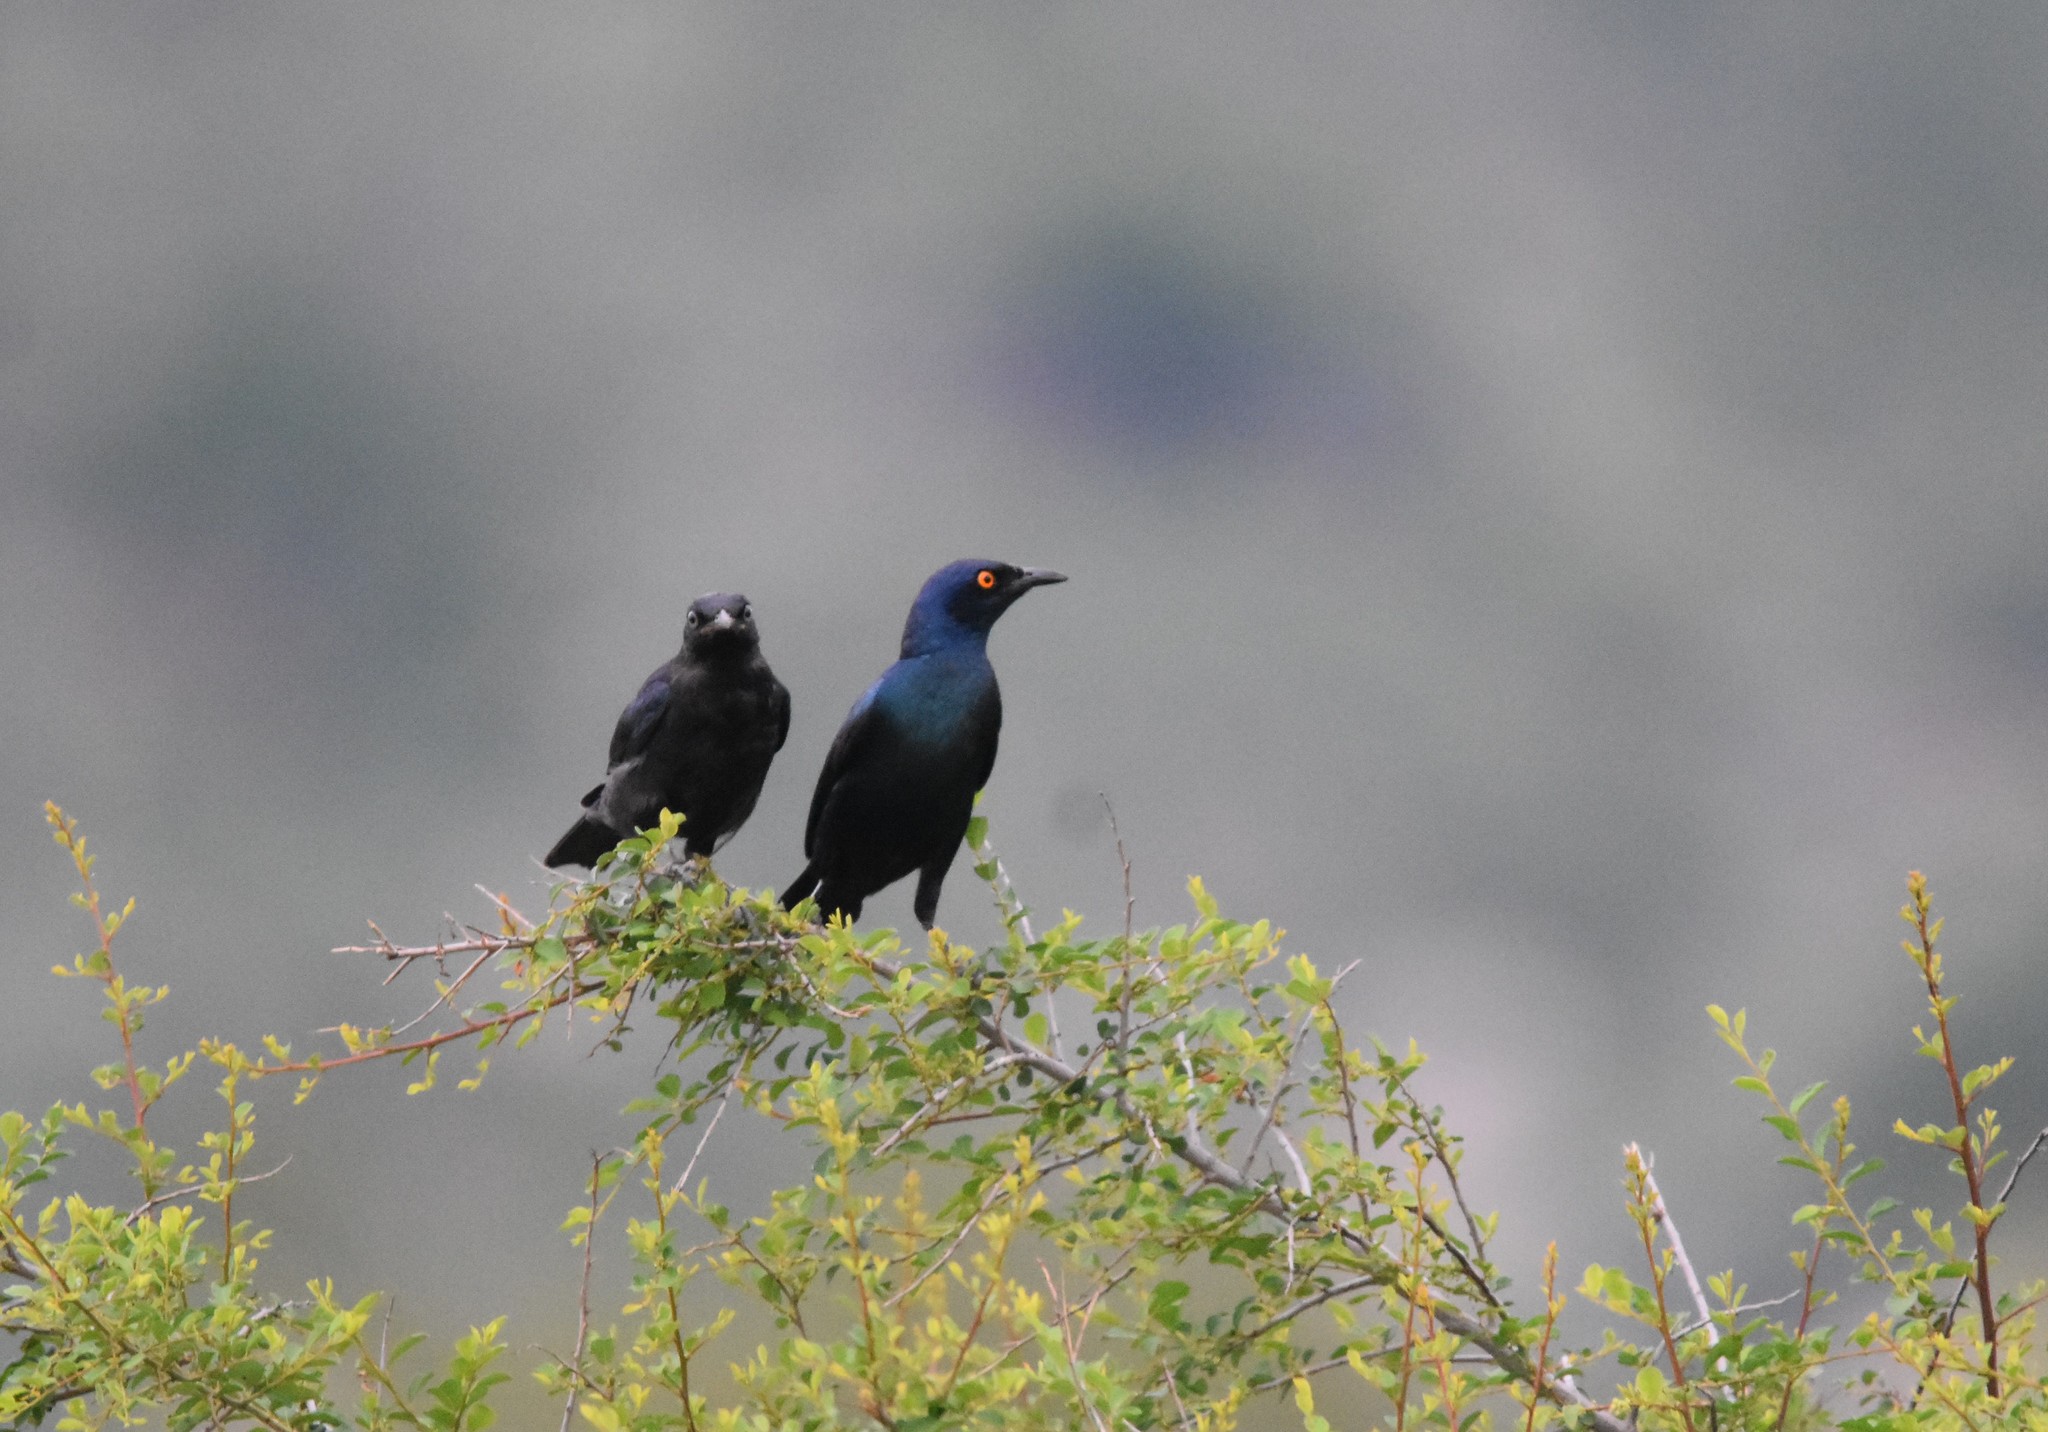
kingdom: Animalia
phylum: Chordata
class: Aves
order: Passeriformes
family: Sturnidae
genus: Lamprotornis
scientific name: Lamprotornis chalybaeus
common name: Greater blue-eared starling
